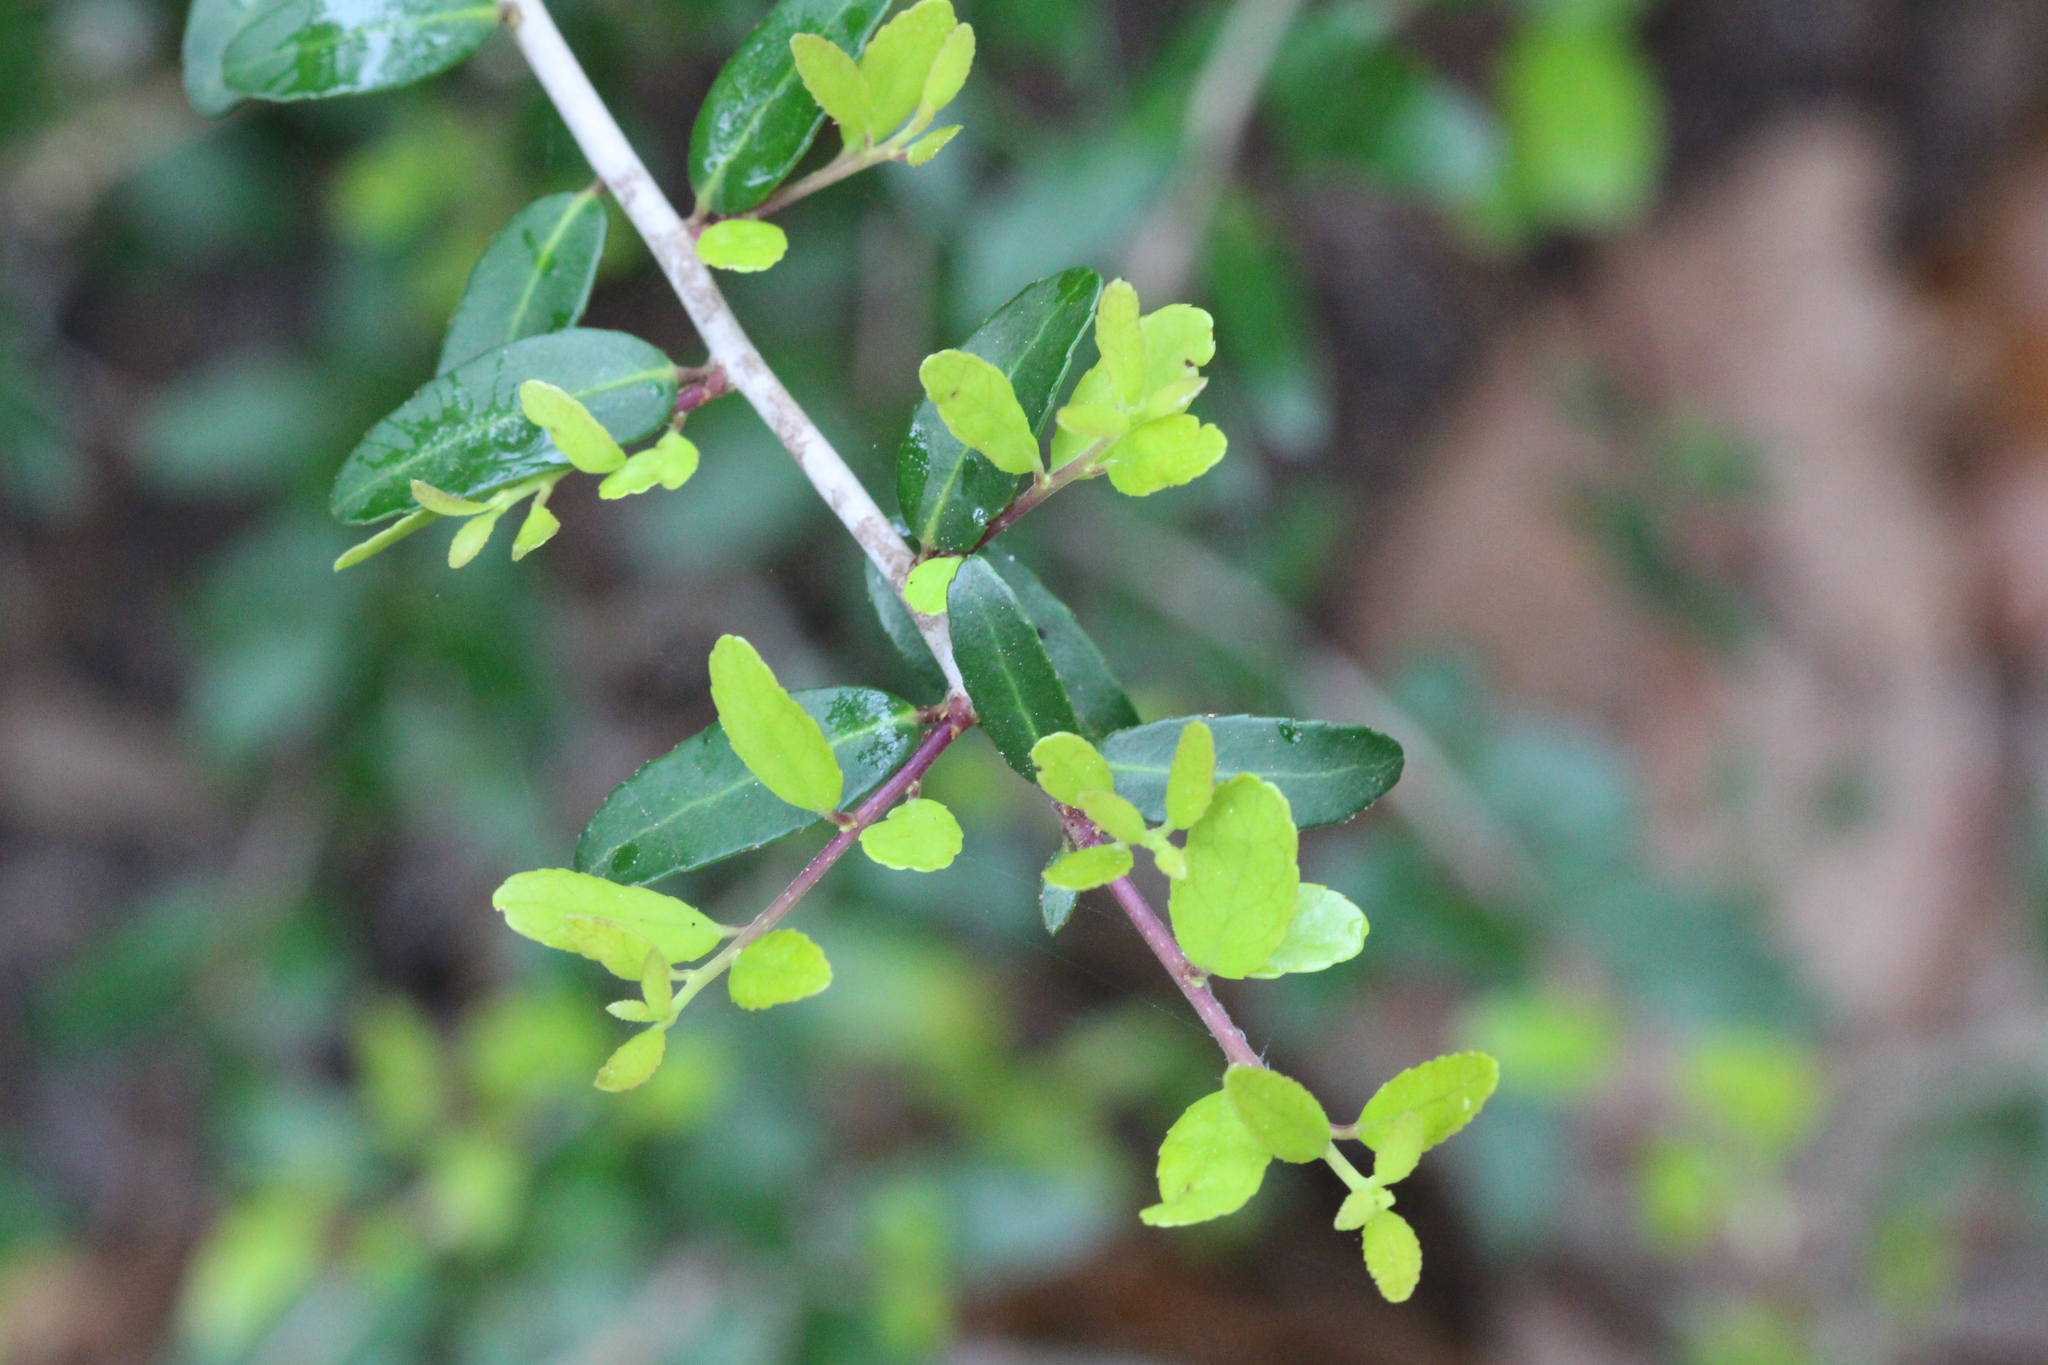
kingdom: Plantae
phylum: Tracheophyta
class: Magnoliopsida
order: Aquifoliales
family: Aquifoliaceae
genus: Ilex
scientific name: Ilex vomitoria
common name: Yaupon holly
